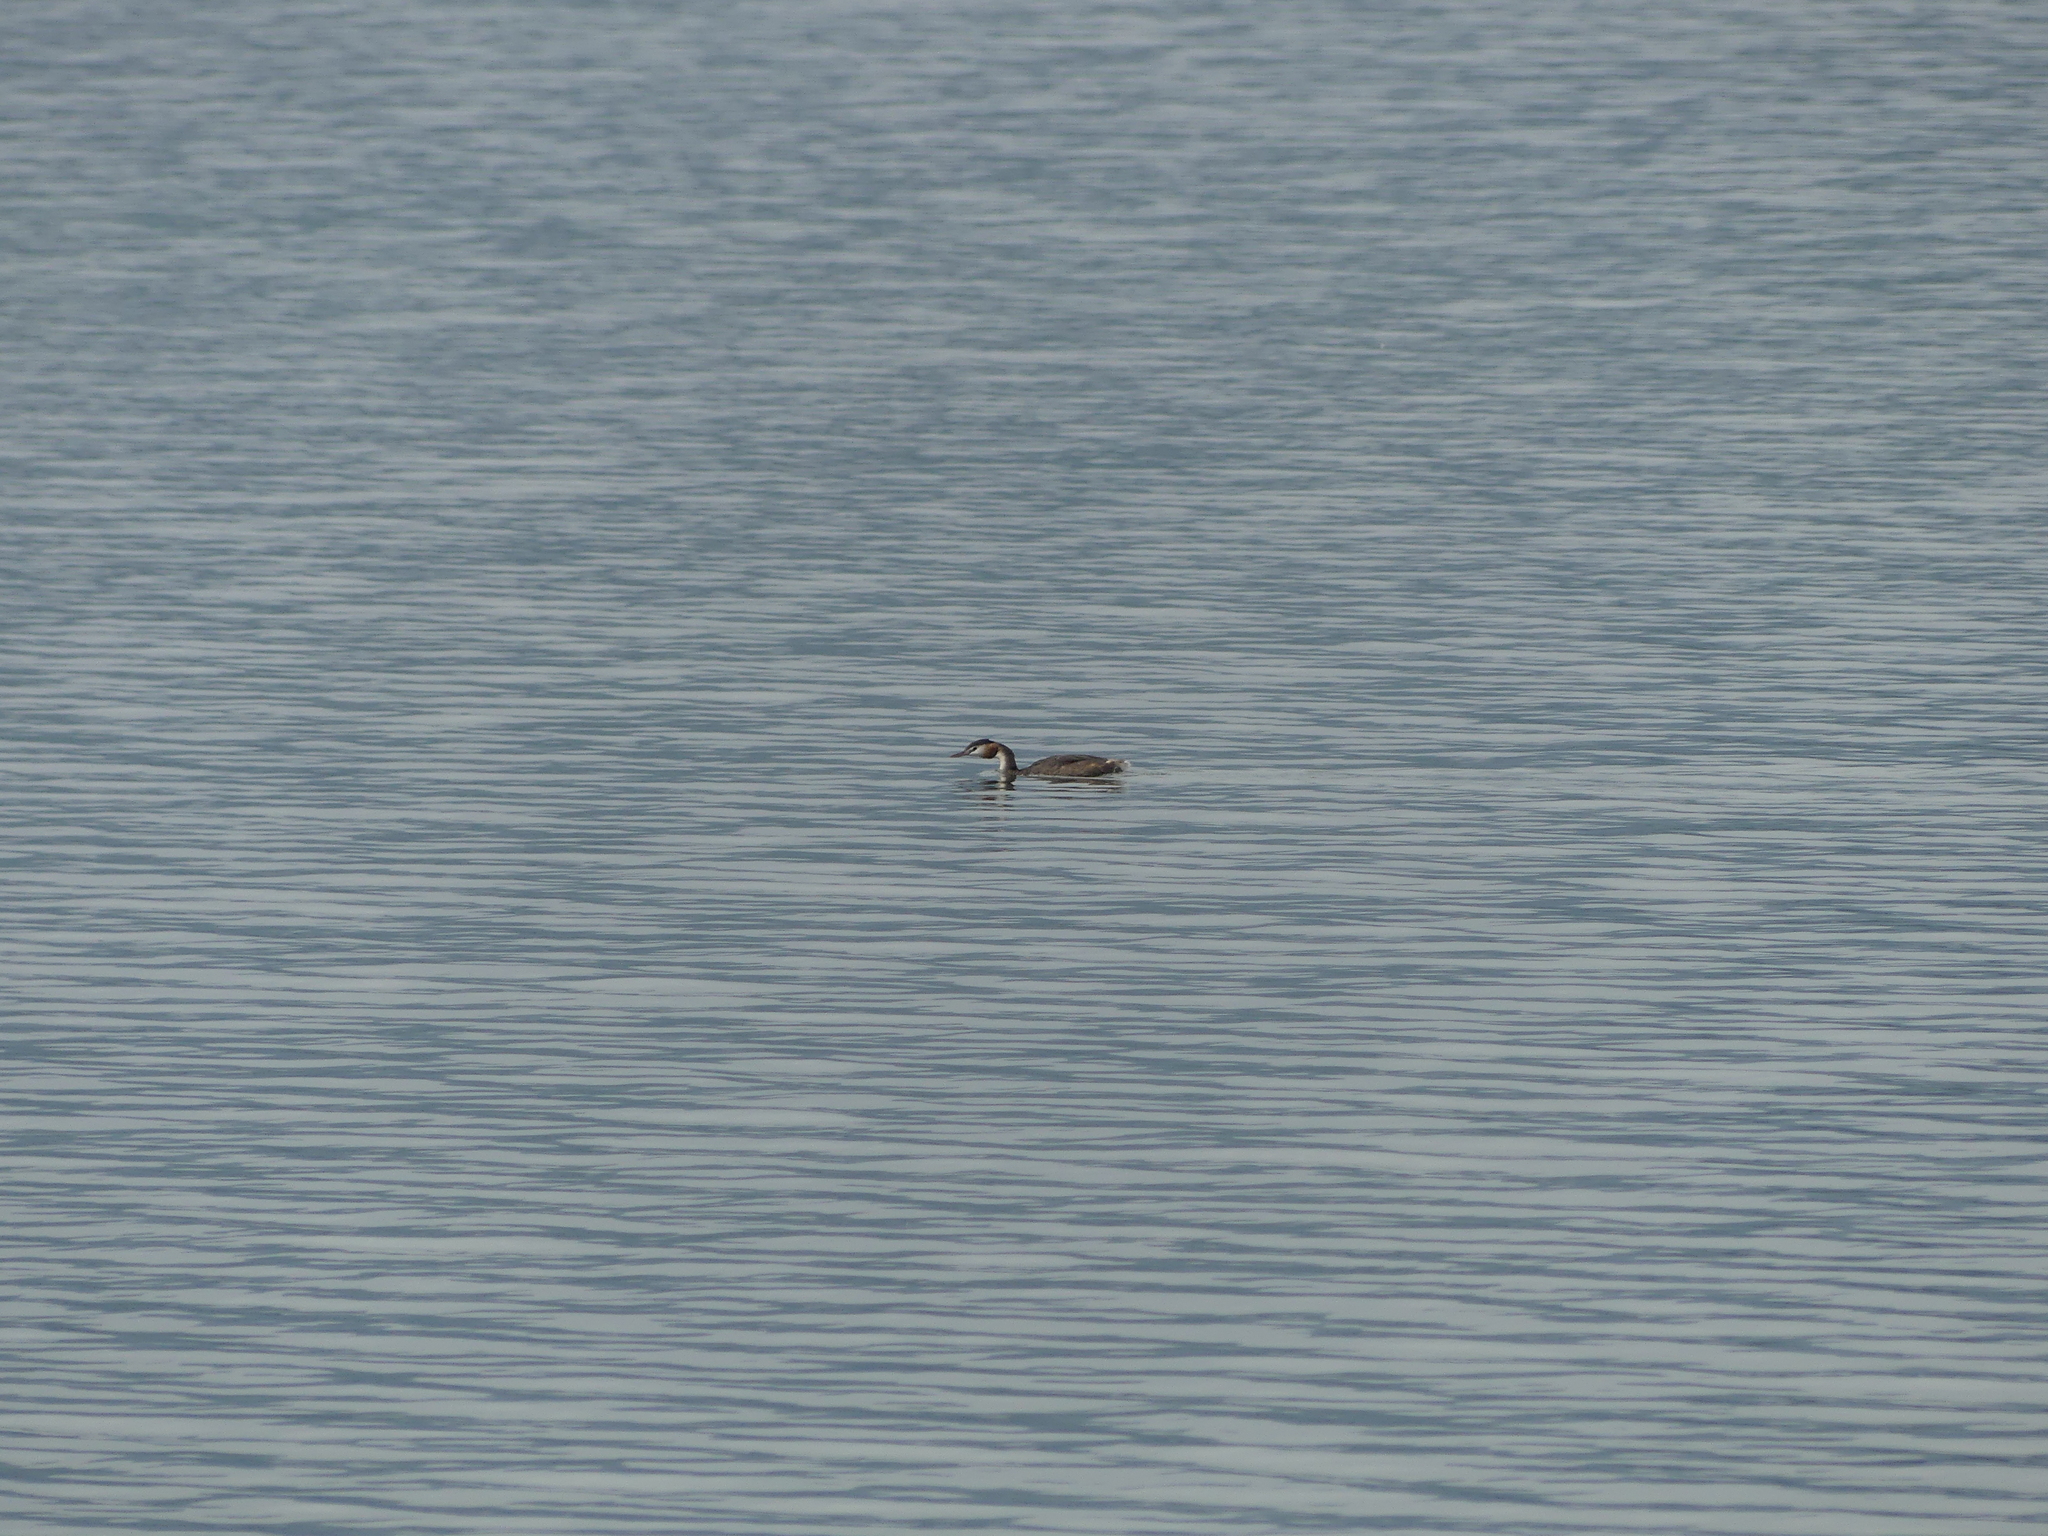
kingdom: Animalia
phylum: Chordata
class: Aves
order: Podicipediformes
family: Podicipedidae
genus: Podiceps
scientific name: Podiceps cristatus
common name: Great crested grebe
